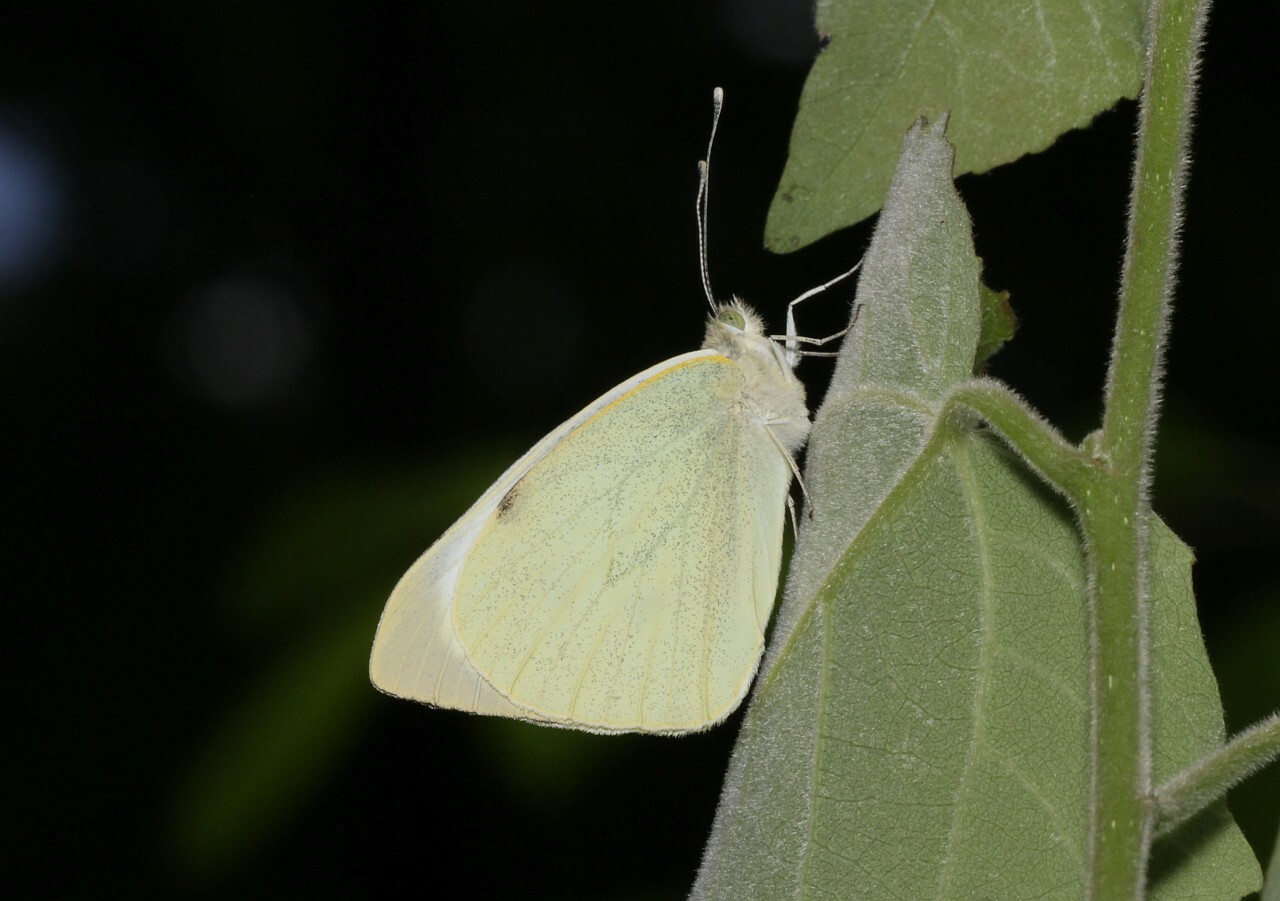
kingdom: Animalia
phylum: Arthropoda
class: Insecta
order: Lepidoptera
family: Pieridae
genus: Pieris
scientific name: Pieris brassicae
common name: Large white
